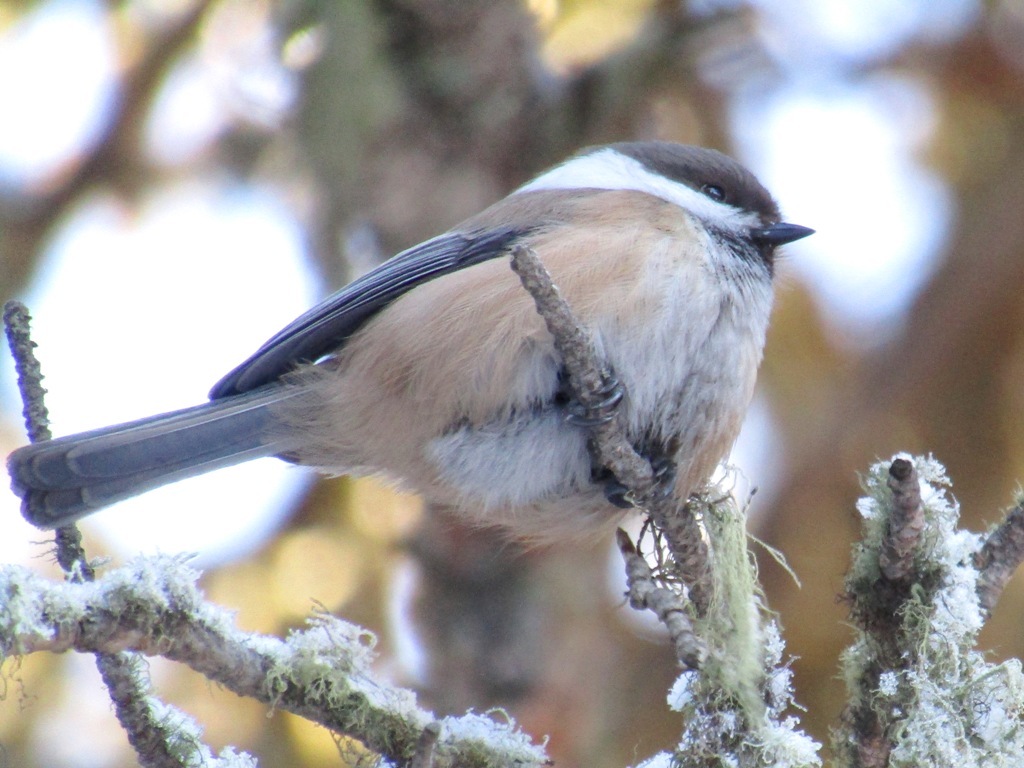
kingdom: Animalia
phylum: Chordata
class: Aves
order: Passeriformes
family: Paridae
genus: Poecile
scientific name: Poecile cinctus
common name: Gray-headed chickadee
